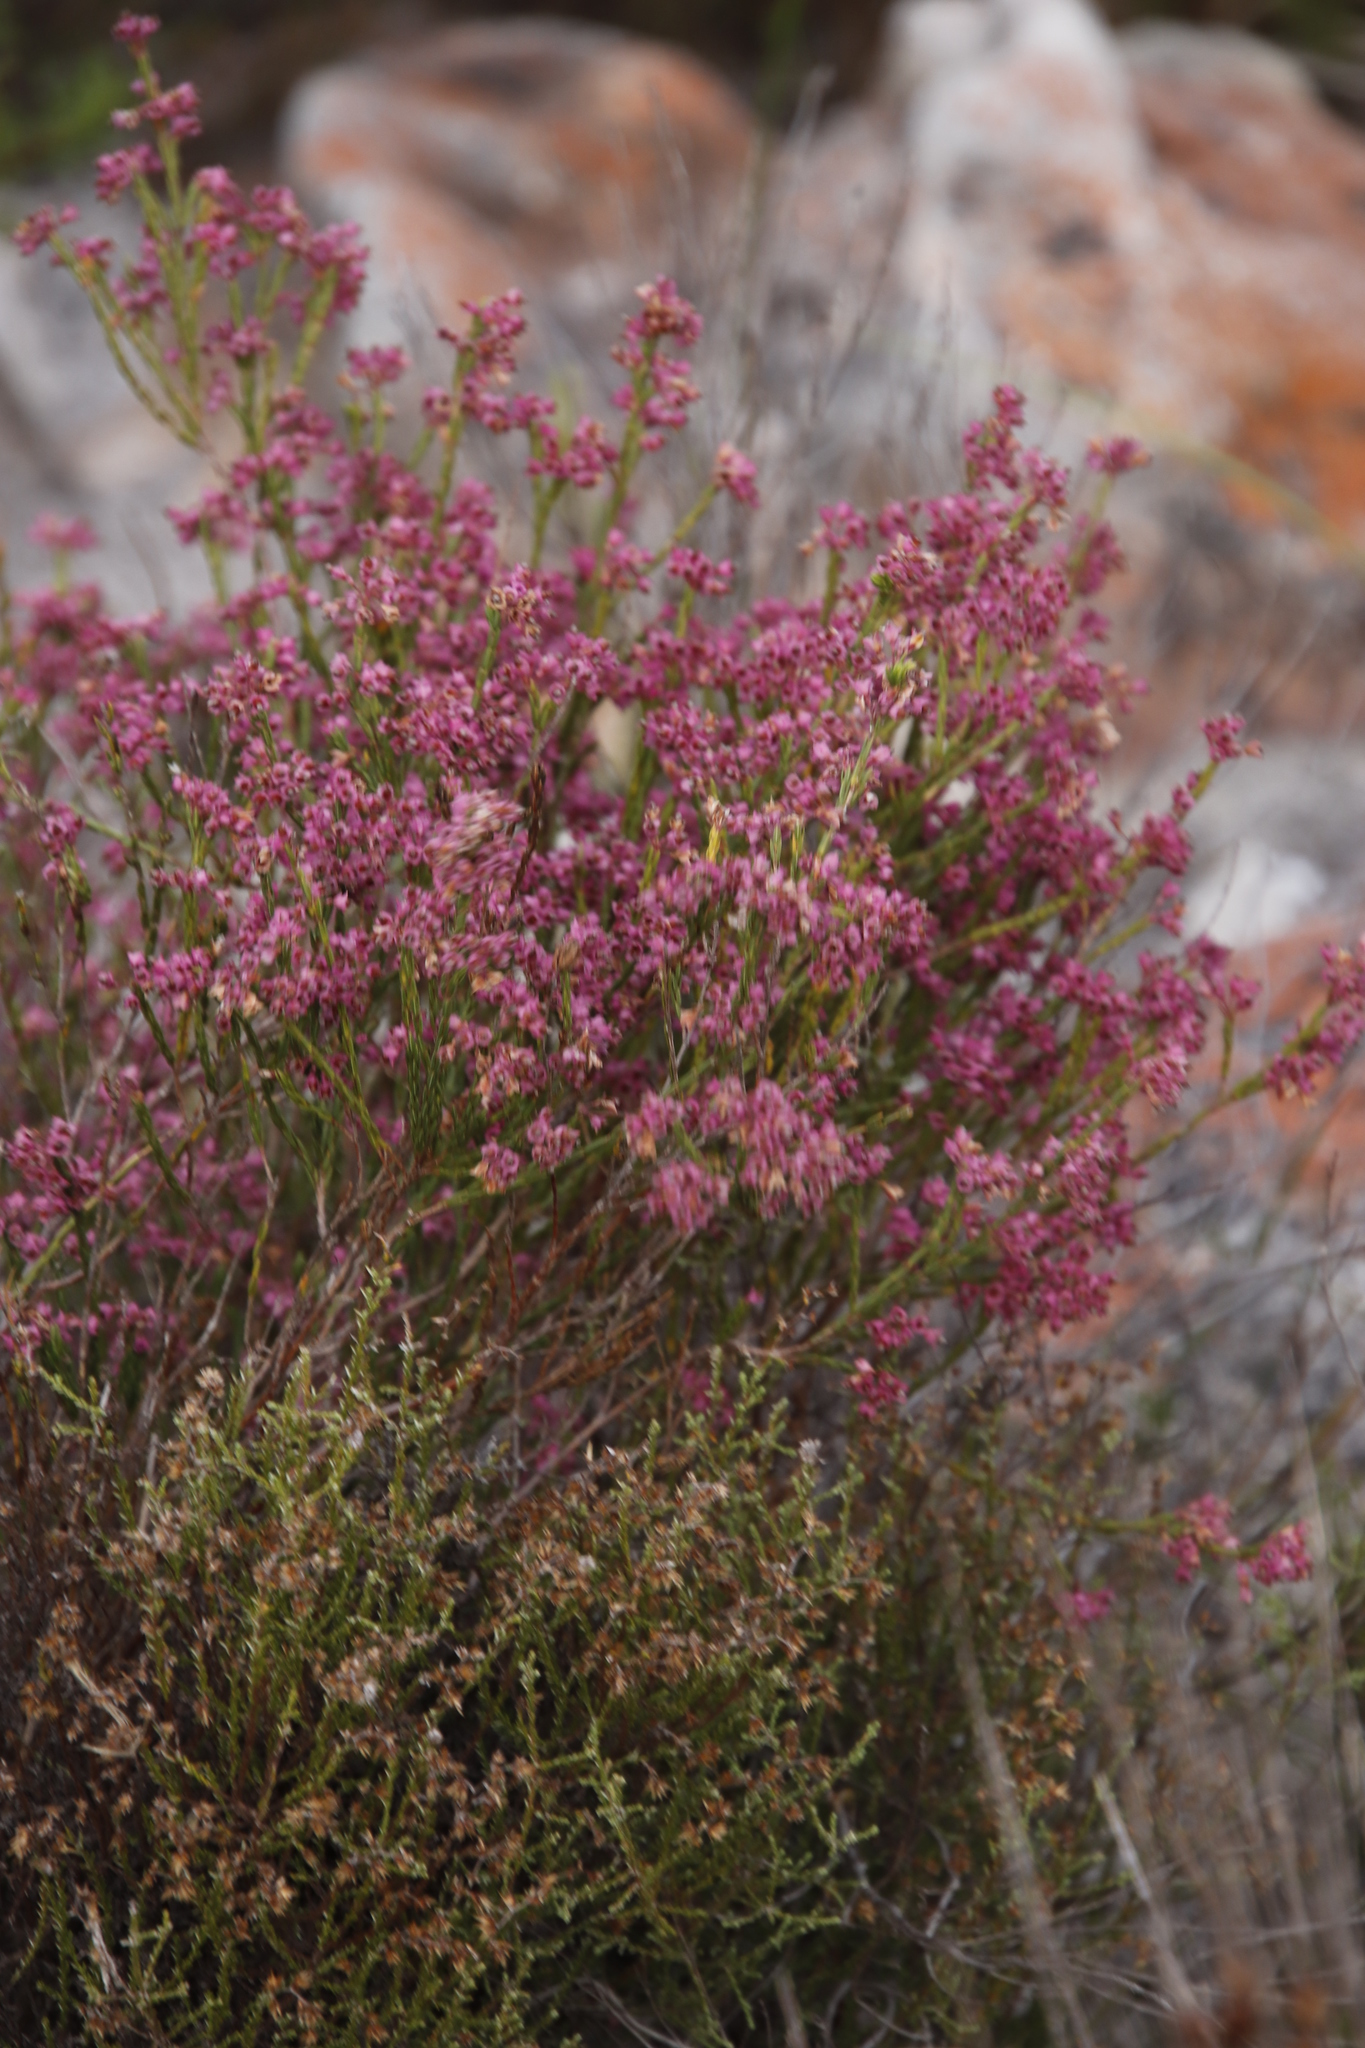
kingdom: Plantae
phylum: Tracheophyta
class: Magnoliopsida
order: Ericales
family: Ericaceae
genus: Erica
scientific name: Erica corifolia
